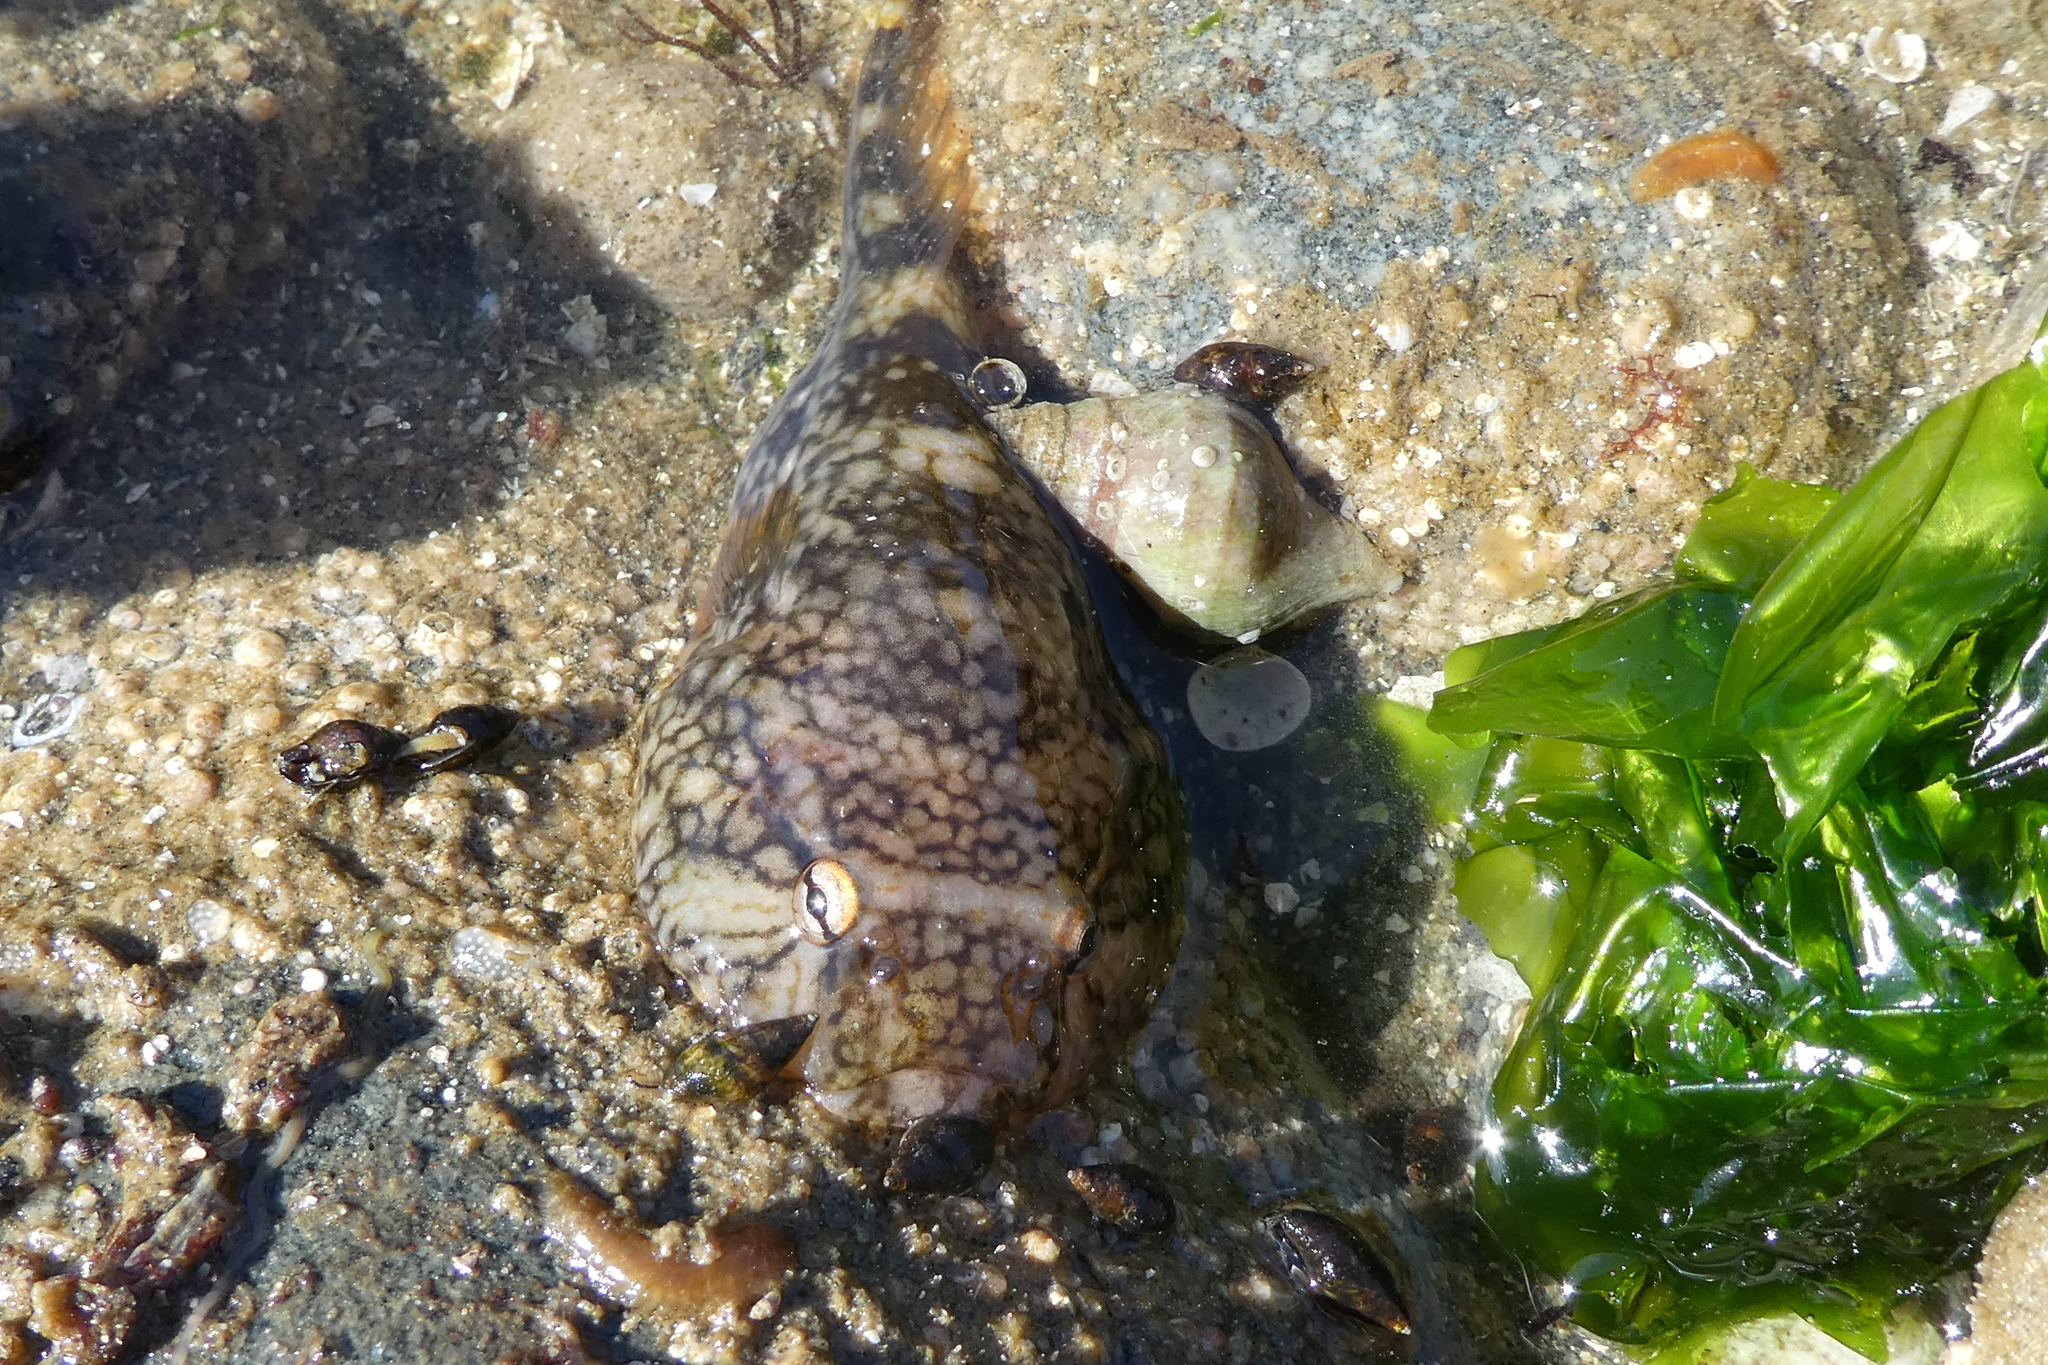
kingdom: Animalia
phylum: Chordata
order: Gobiesociformes
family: Gobiesocidae
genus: Gobiesox
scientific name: Gobiesox maeandricus
